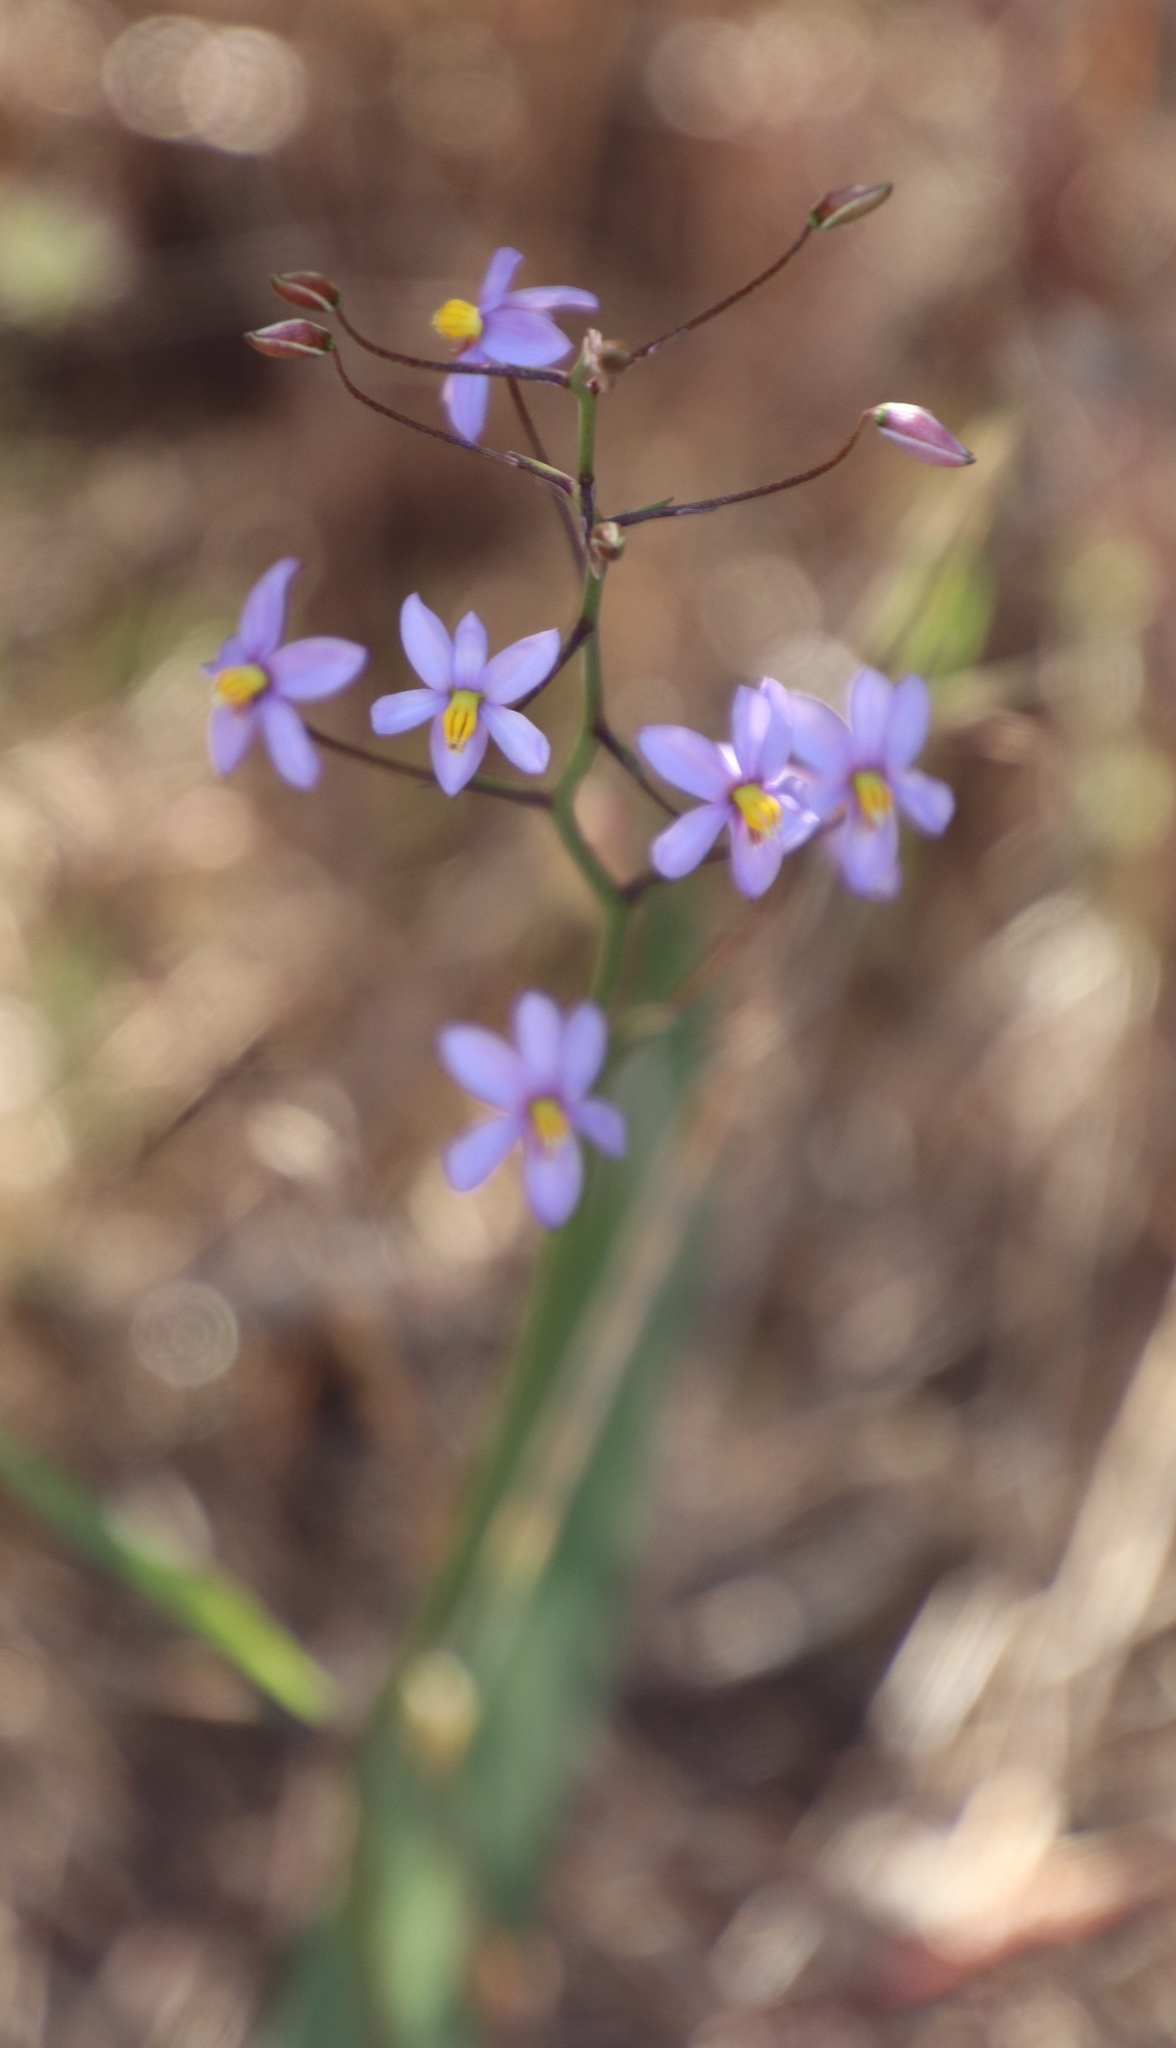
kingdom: Plantae
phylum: Tracheophyta
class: Liliopsida
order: Asparagales
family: Tecophilaeaceae
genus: Cyanella
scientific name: Cyanella hyacinthoides
